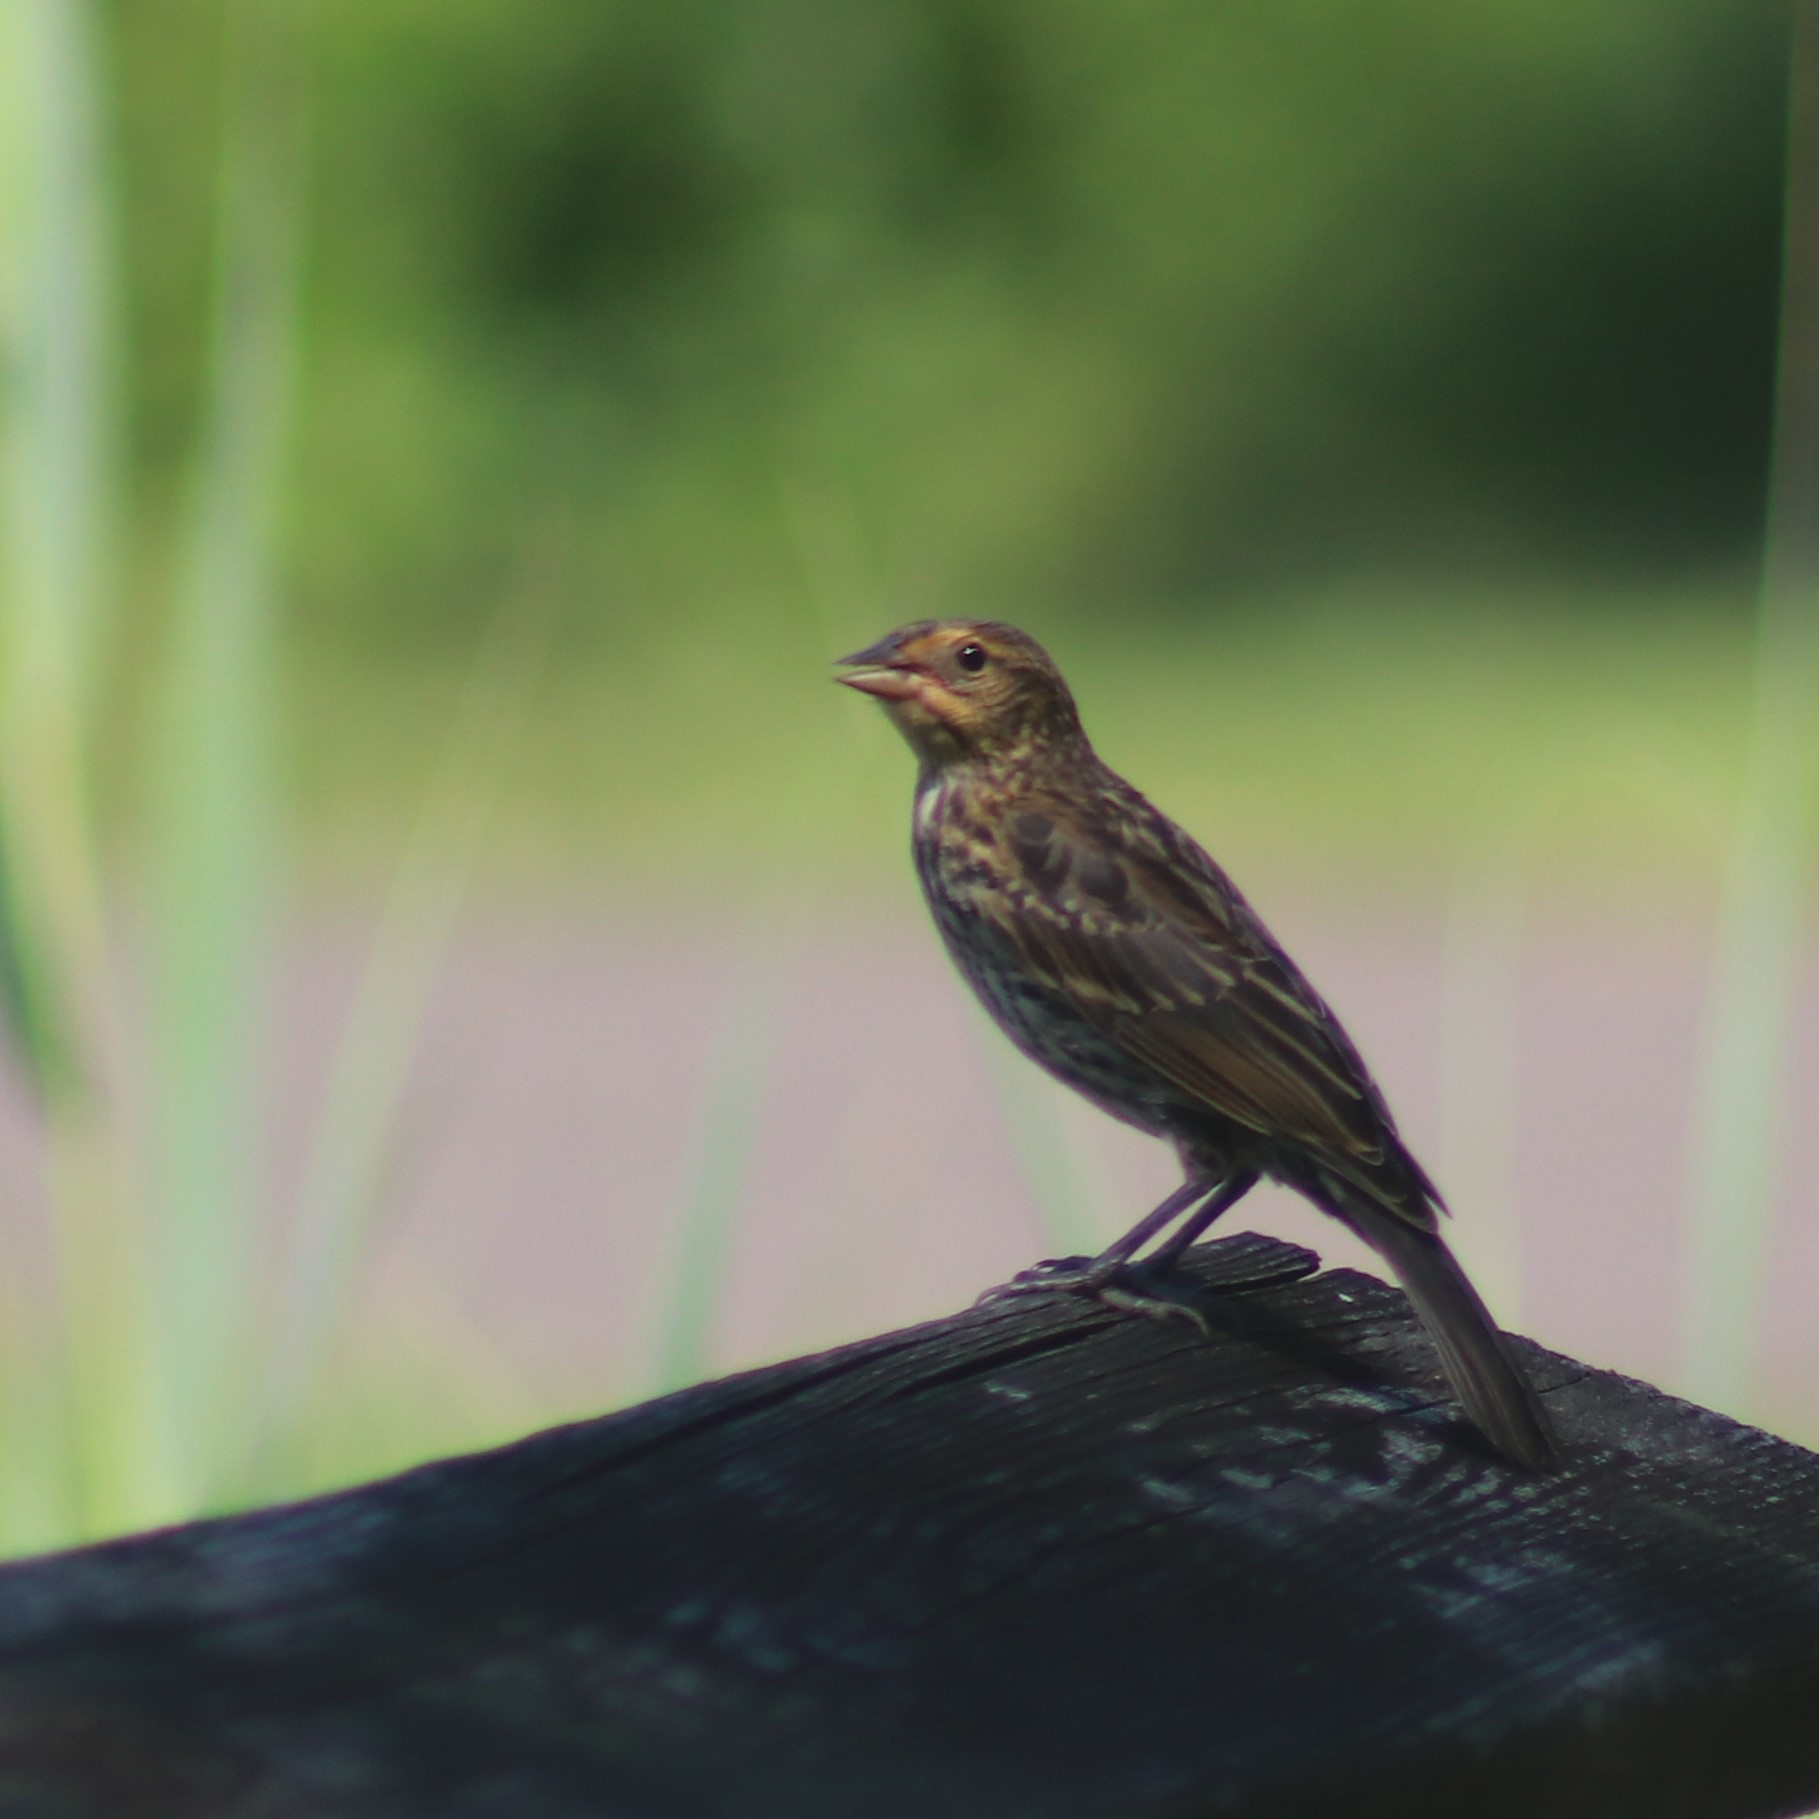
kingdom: Animalia
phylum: Chordata
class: Aves
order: Passeriformes
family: Icteridae
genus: Agelaius
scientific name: Agelaius phoeniceus
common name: Red-winged blackbird
